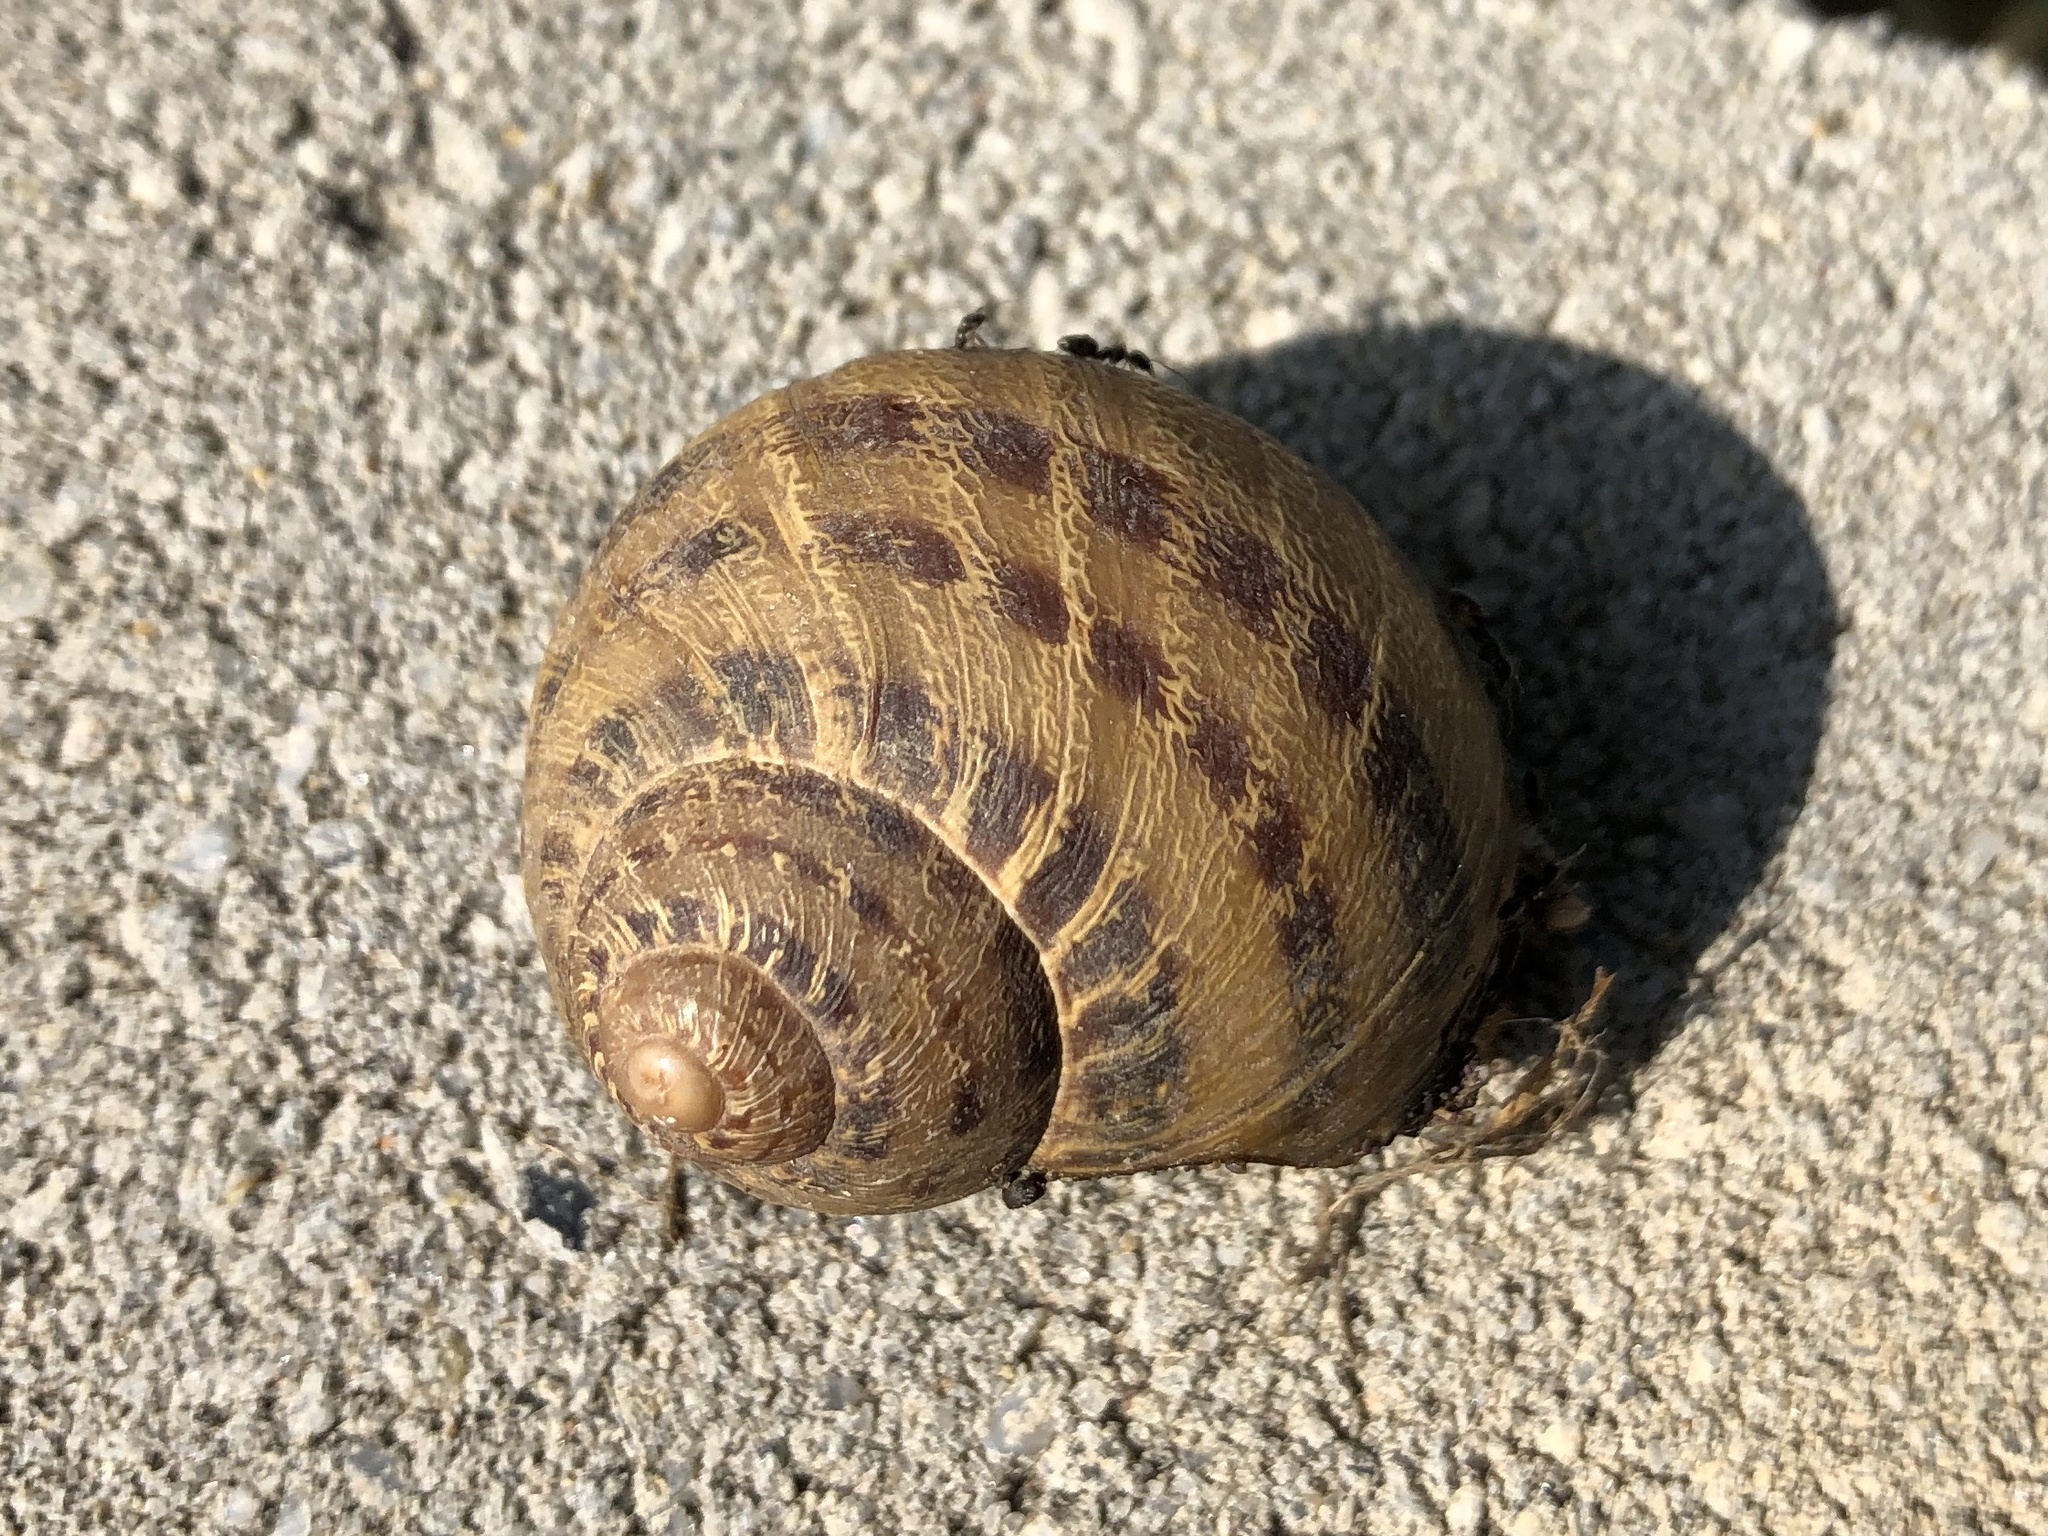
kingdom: Animalia
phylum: Mollusca
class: Gastropoda
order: Stylommatophora
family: Helicidae
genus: Cornu
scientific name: Cornu aspersum
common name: Brown garden snail
